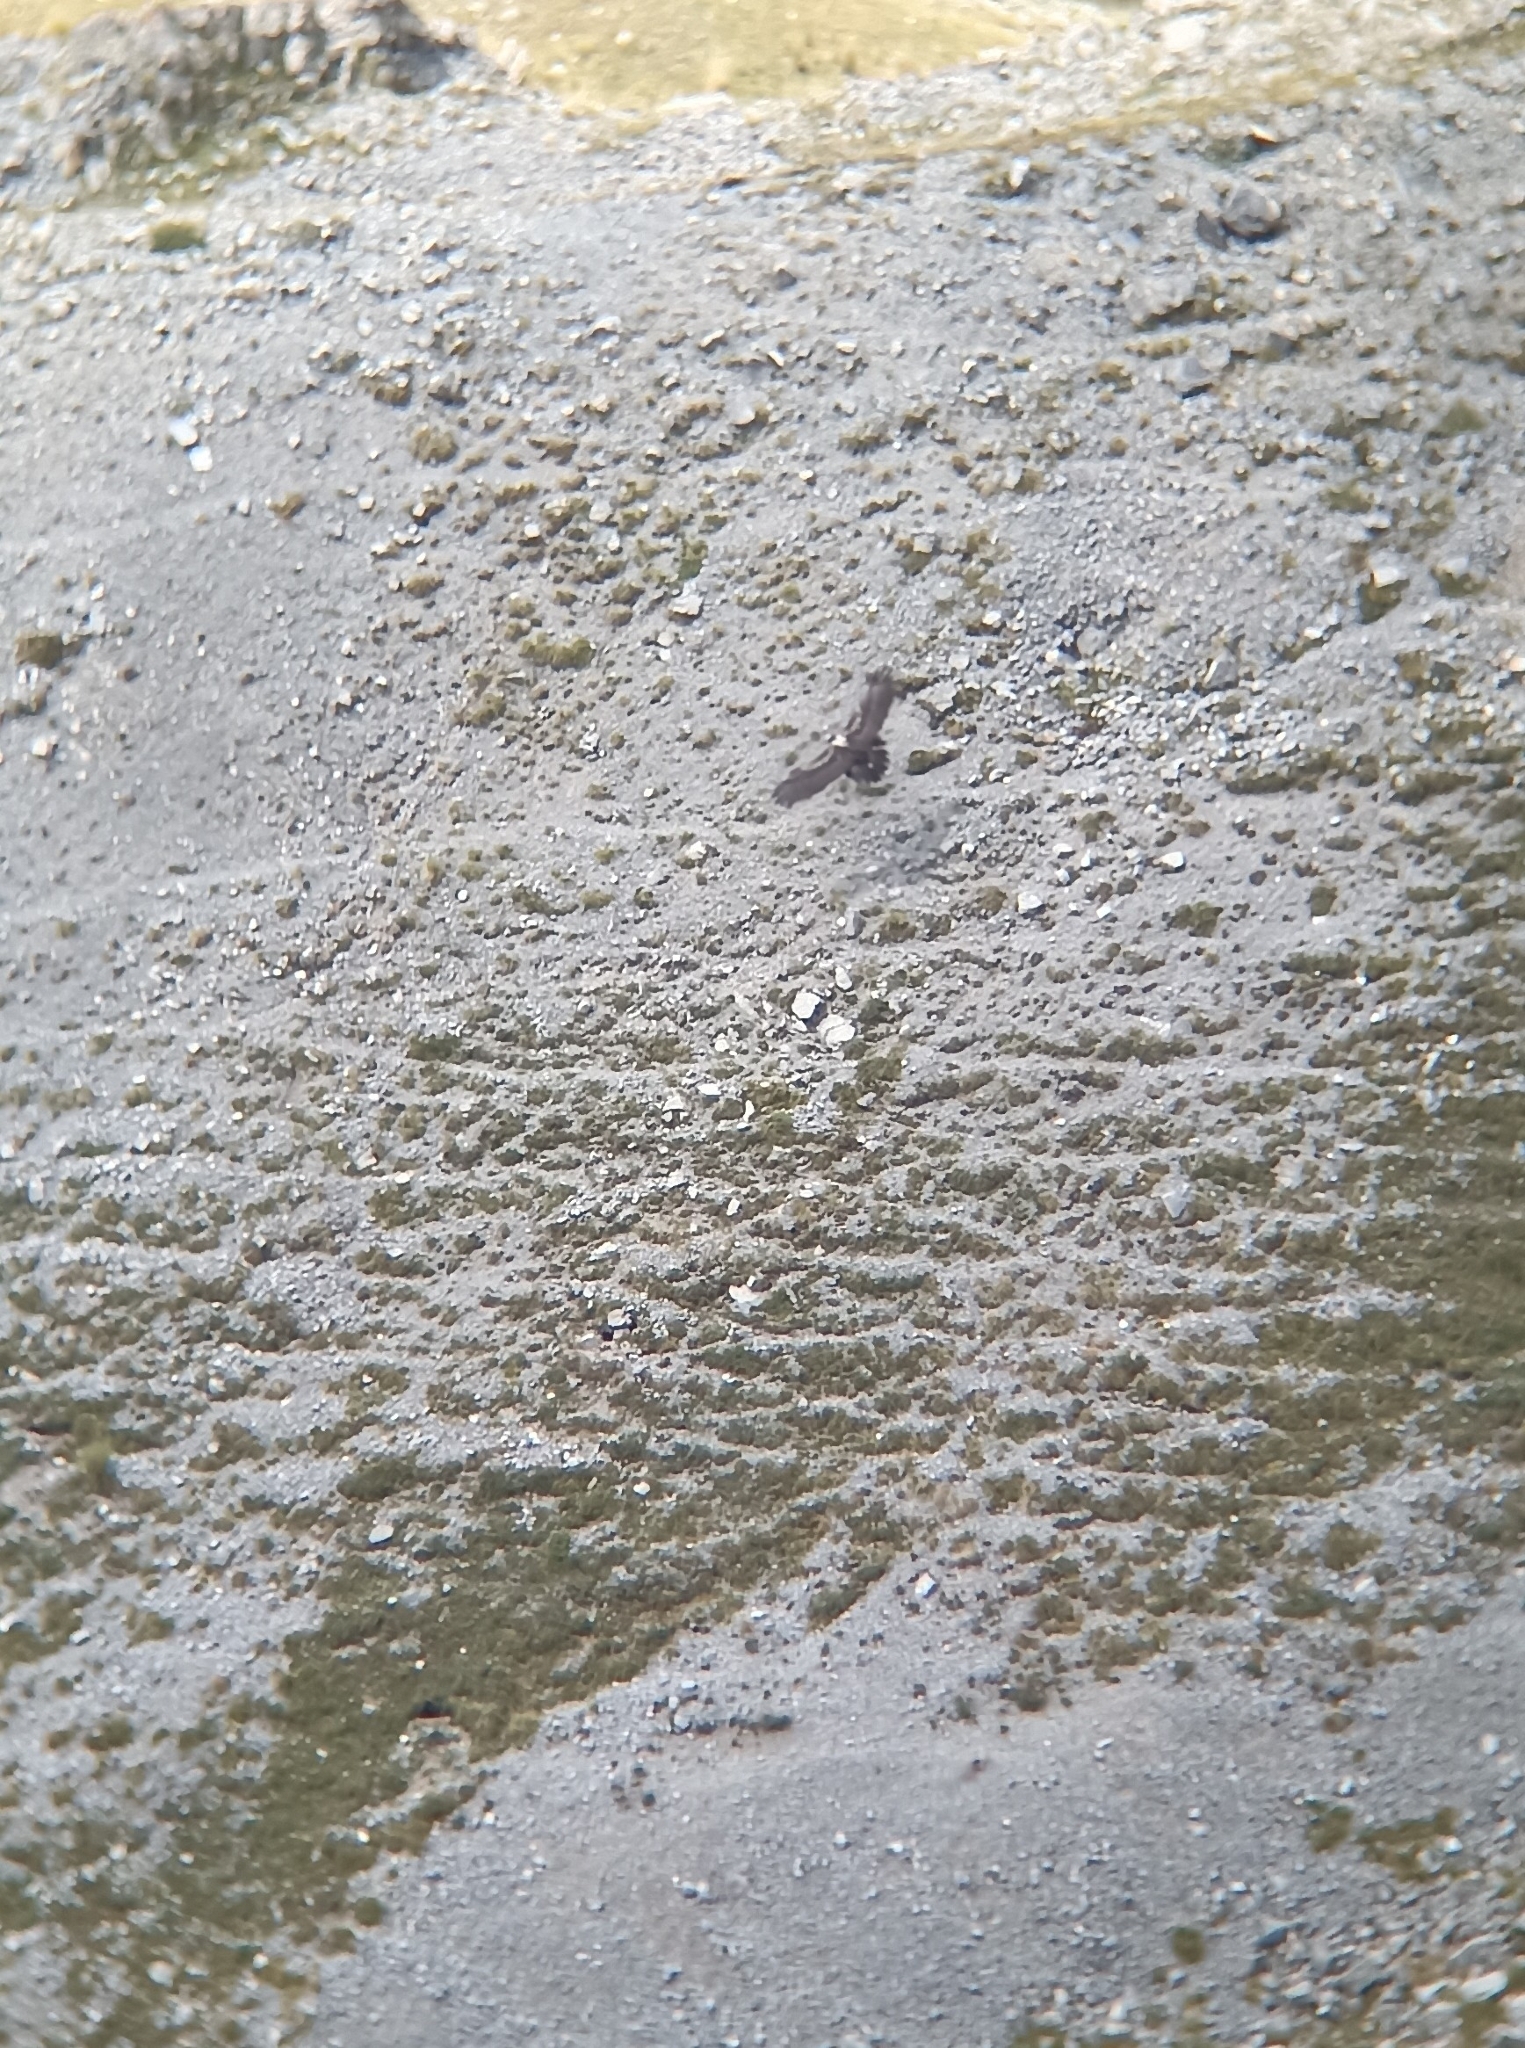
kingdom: Animalia
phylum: Chordata
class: Aves
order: Accipitriformes
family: Accipitridae
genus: Gypaetus
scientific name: Gypaetus barbatus
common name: Bearded vulture
